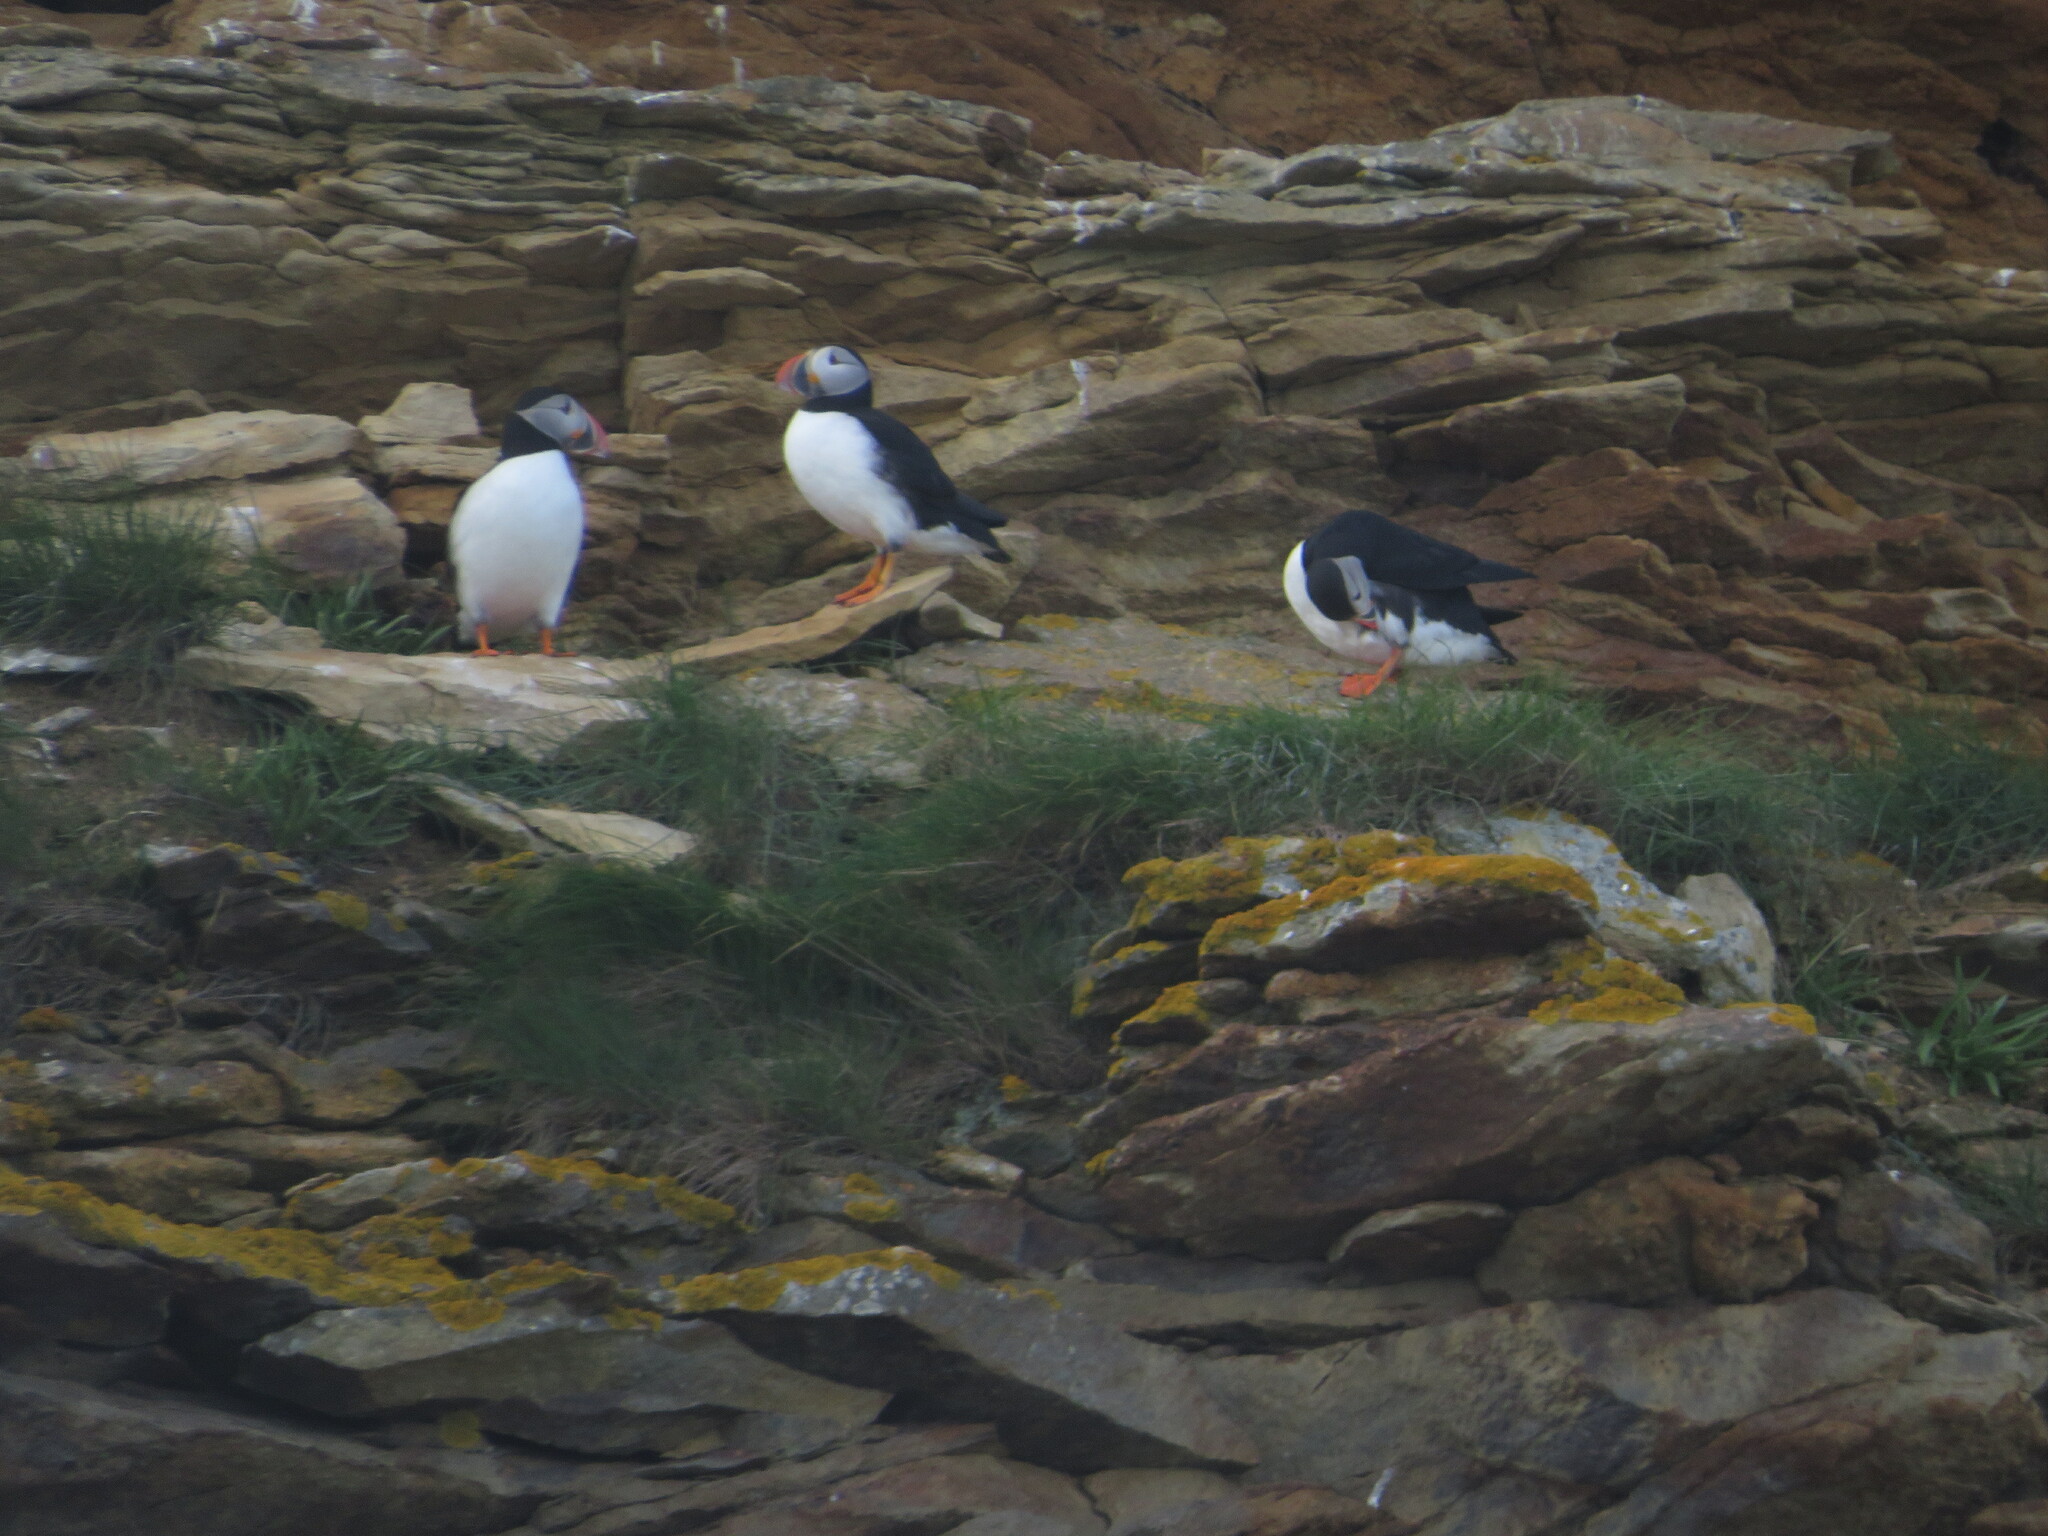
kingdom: Animalia
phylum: Chordata
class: Aves
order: Charadriiformes
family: Alcidae
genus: Fratercula
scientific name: Fratercula arctica
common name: Atlantic puffin
